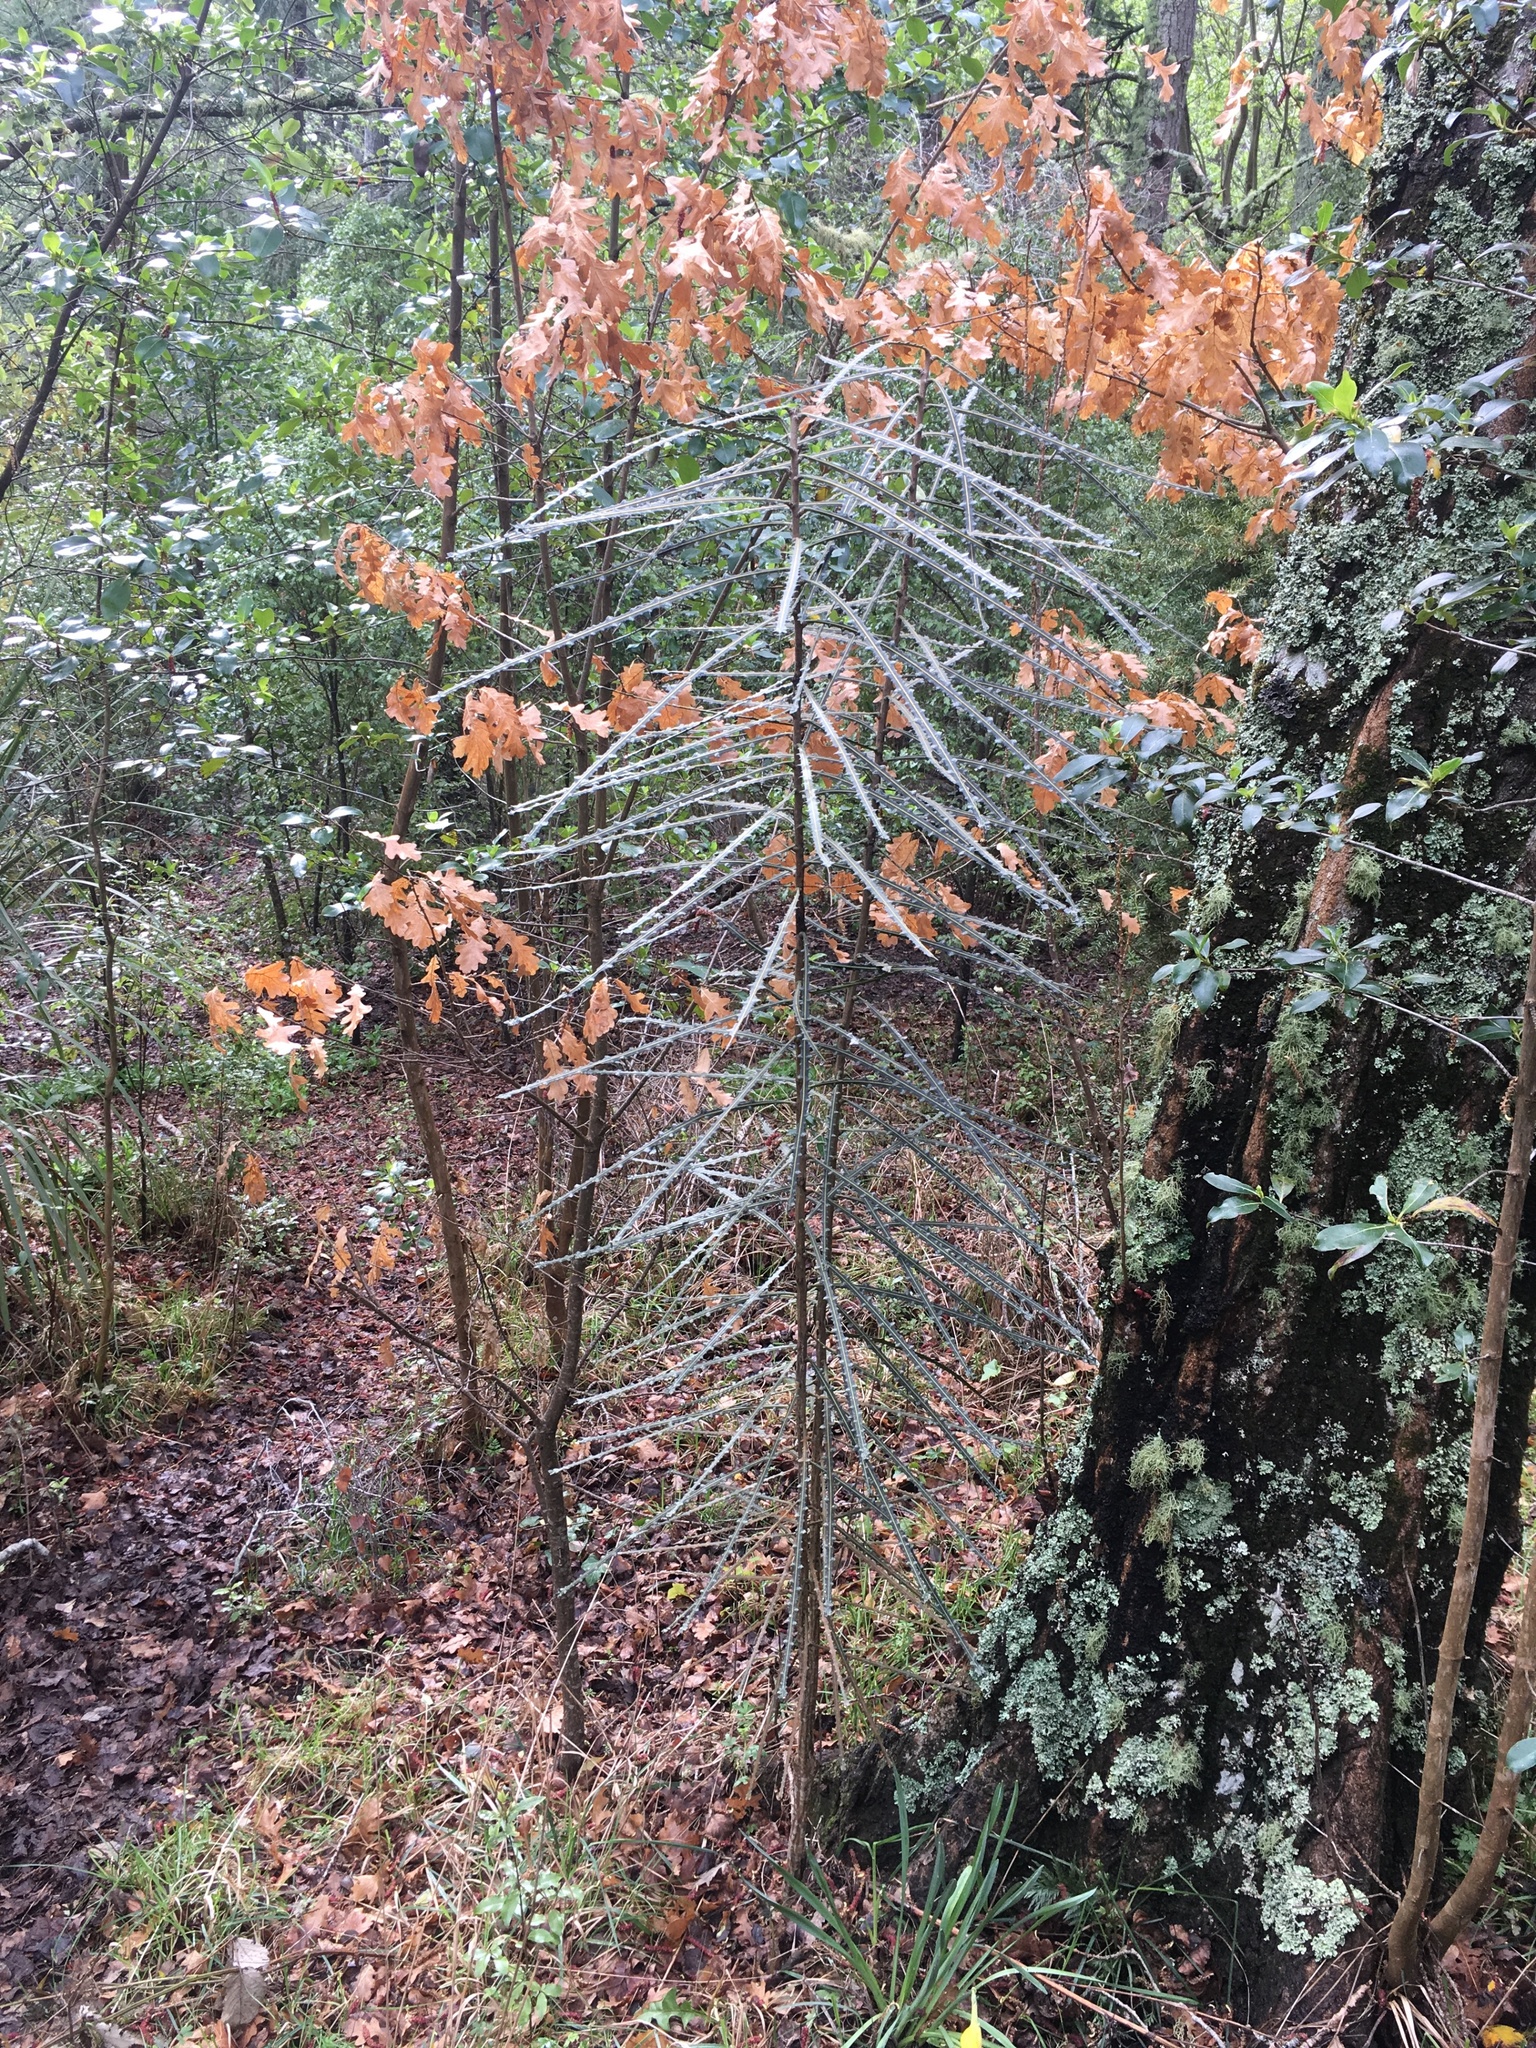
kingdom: Plantae
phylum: Tracheophyta
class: Magnoliopsida
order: Apiales
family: Araliaceae
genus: Pseudopanax
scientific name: Pseudopanax ferox
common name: Fierce lancewood
